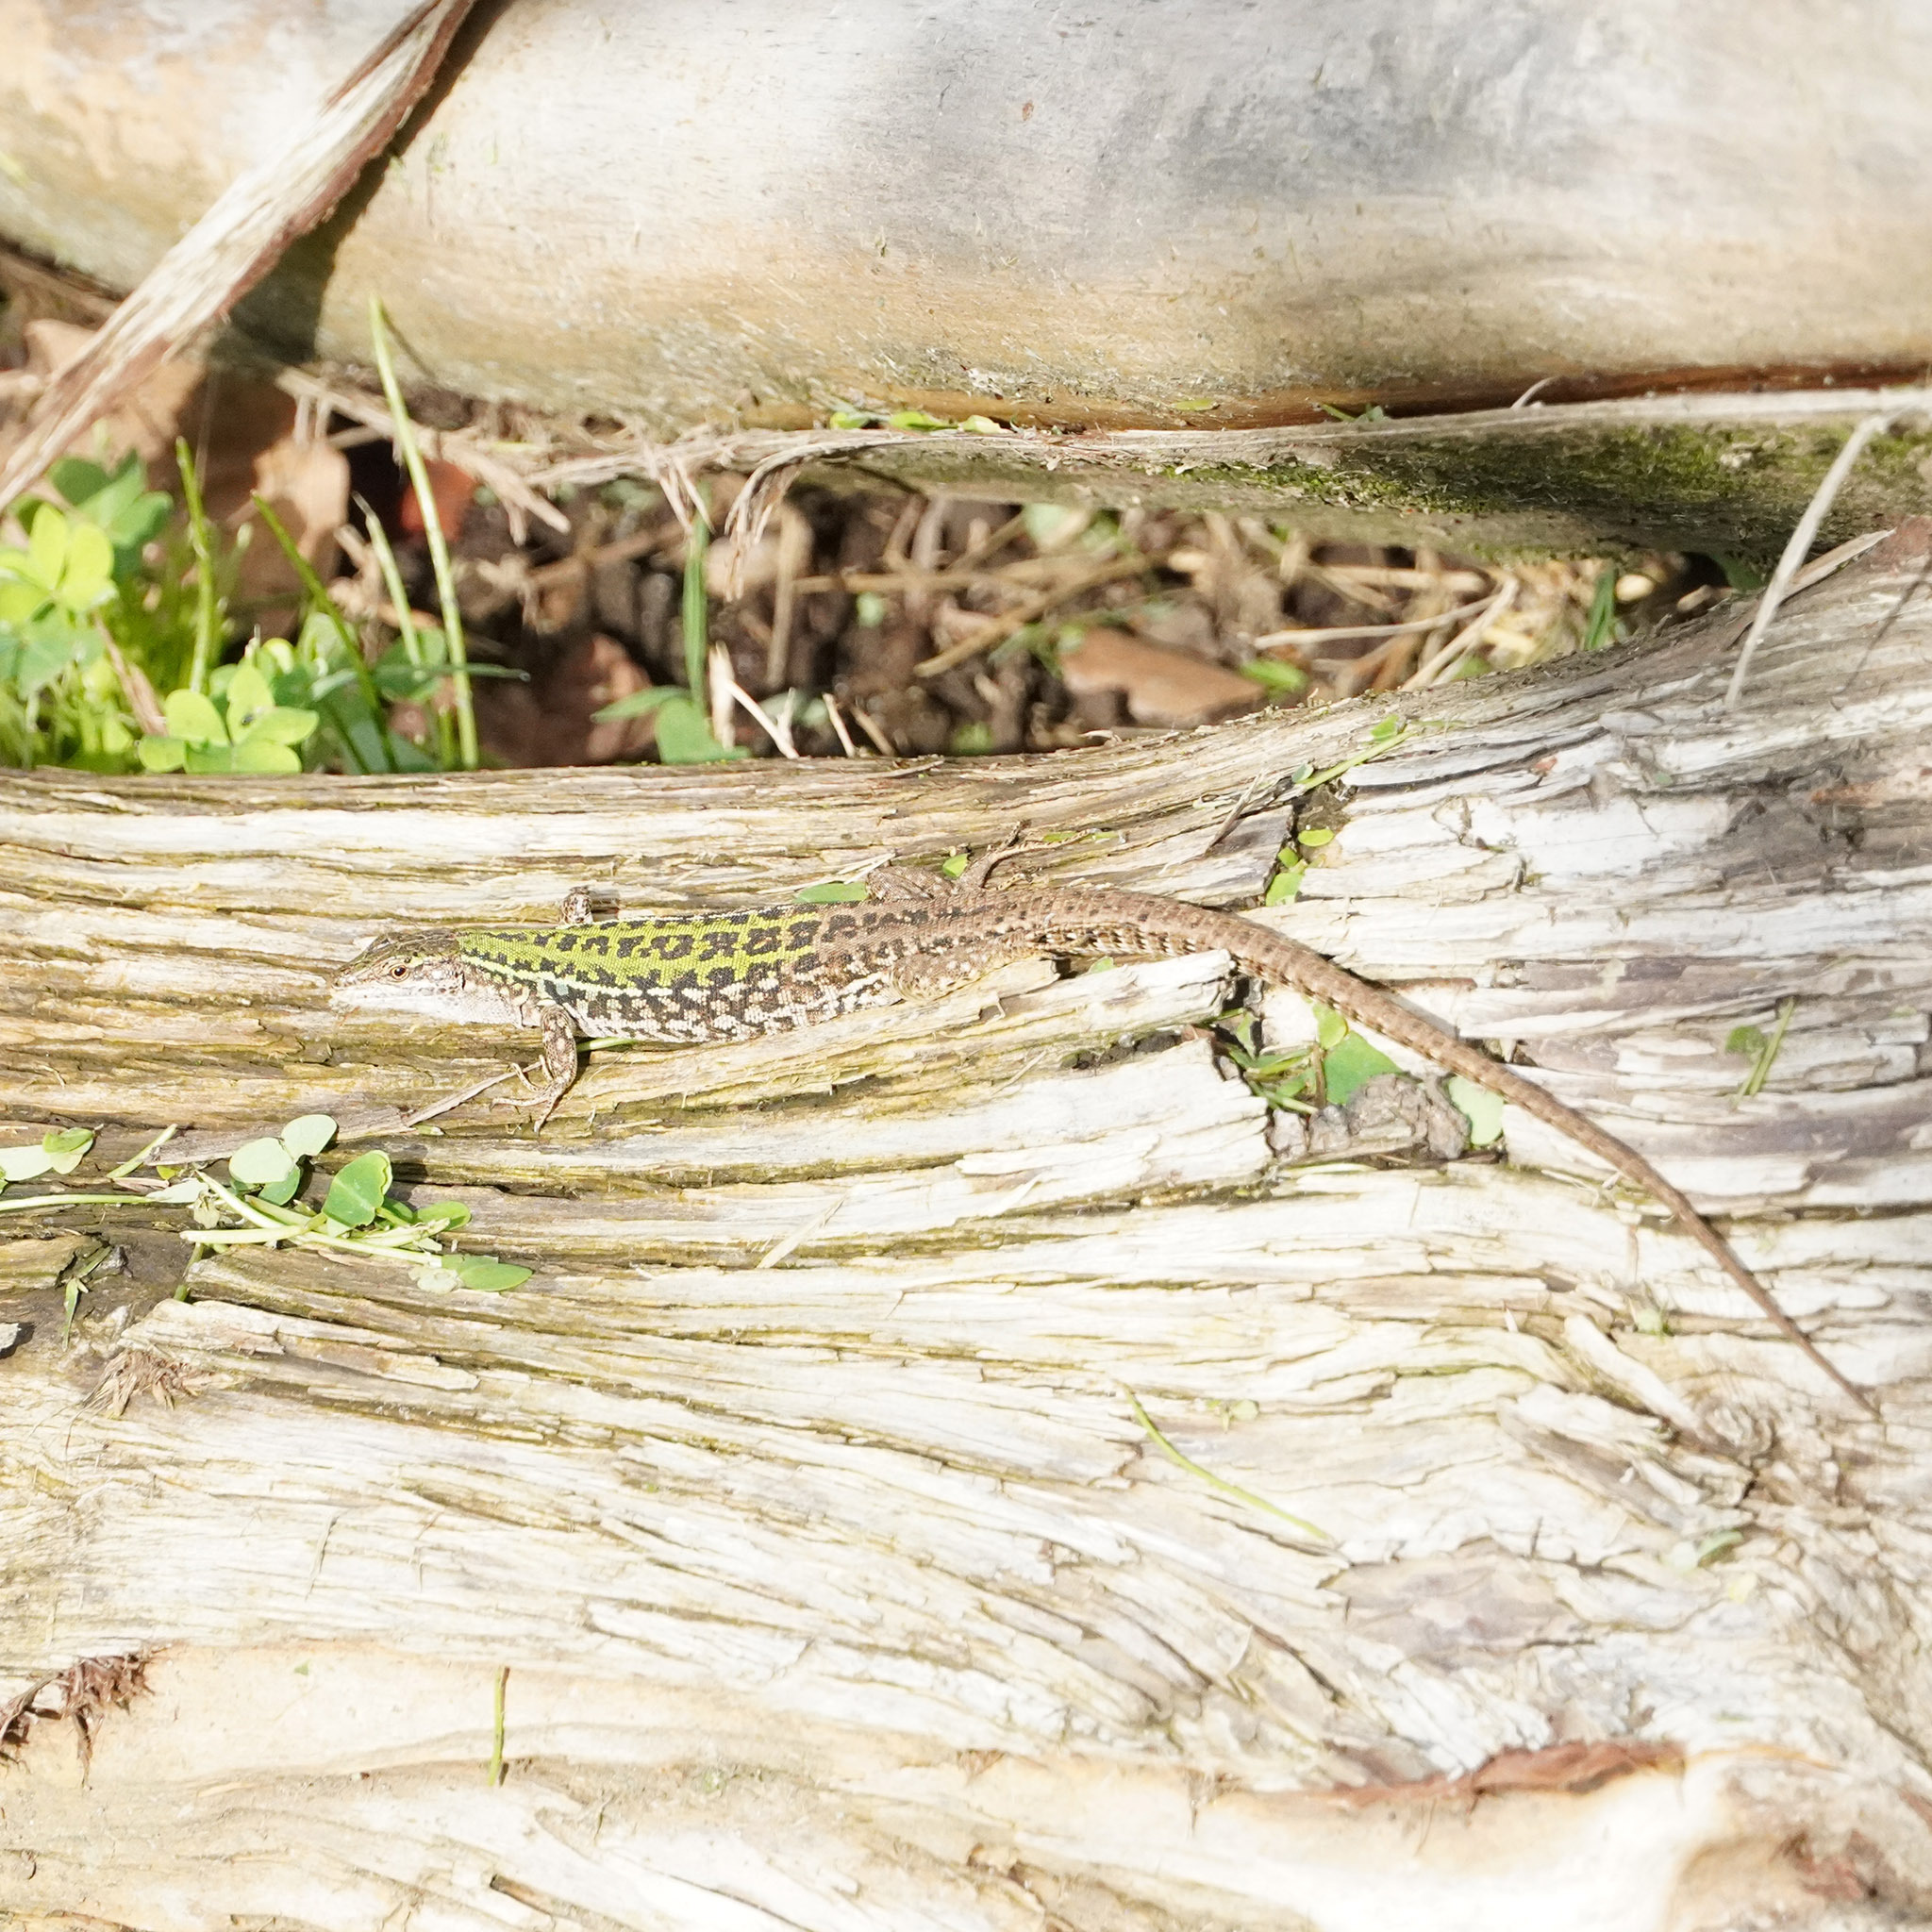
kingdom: Animalia
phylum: Chordata
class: Squamata
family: Lacertidae
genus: Podarcis
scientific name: Podarcis siculus
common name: Italian wall lizard
